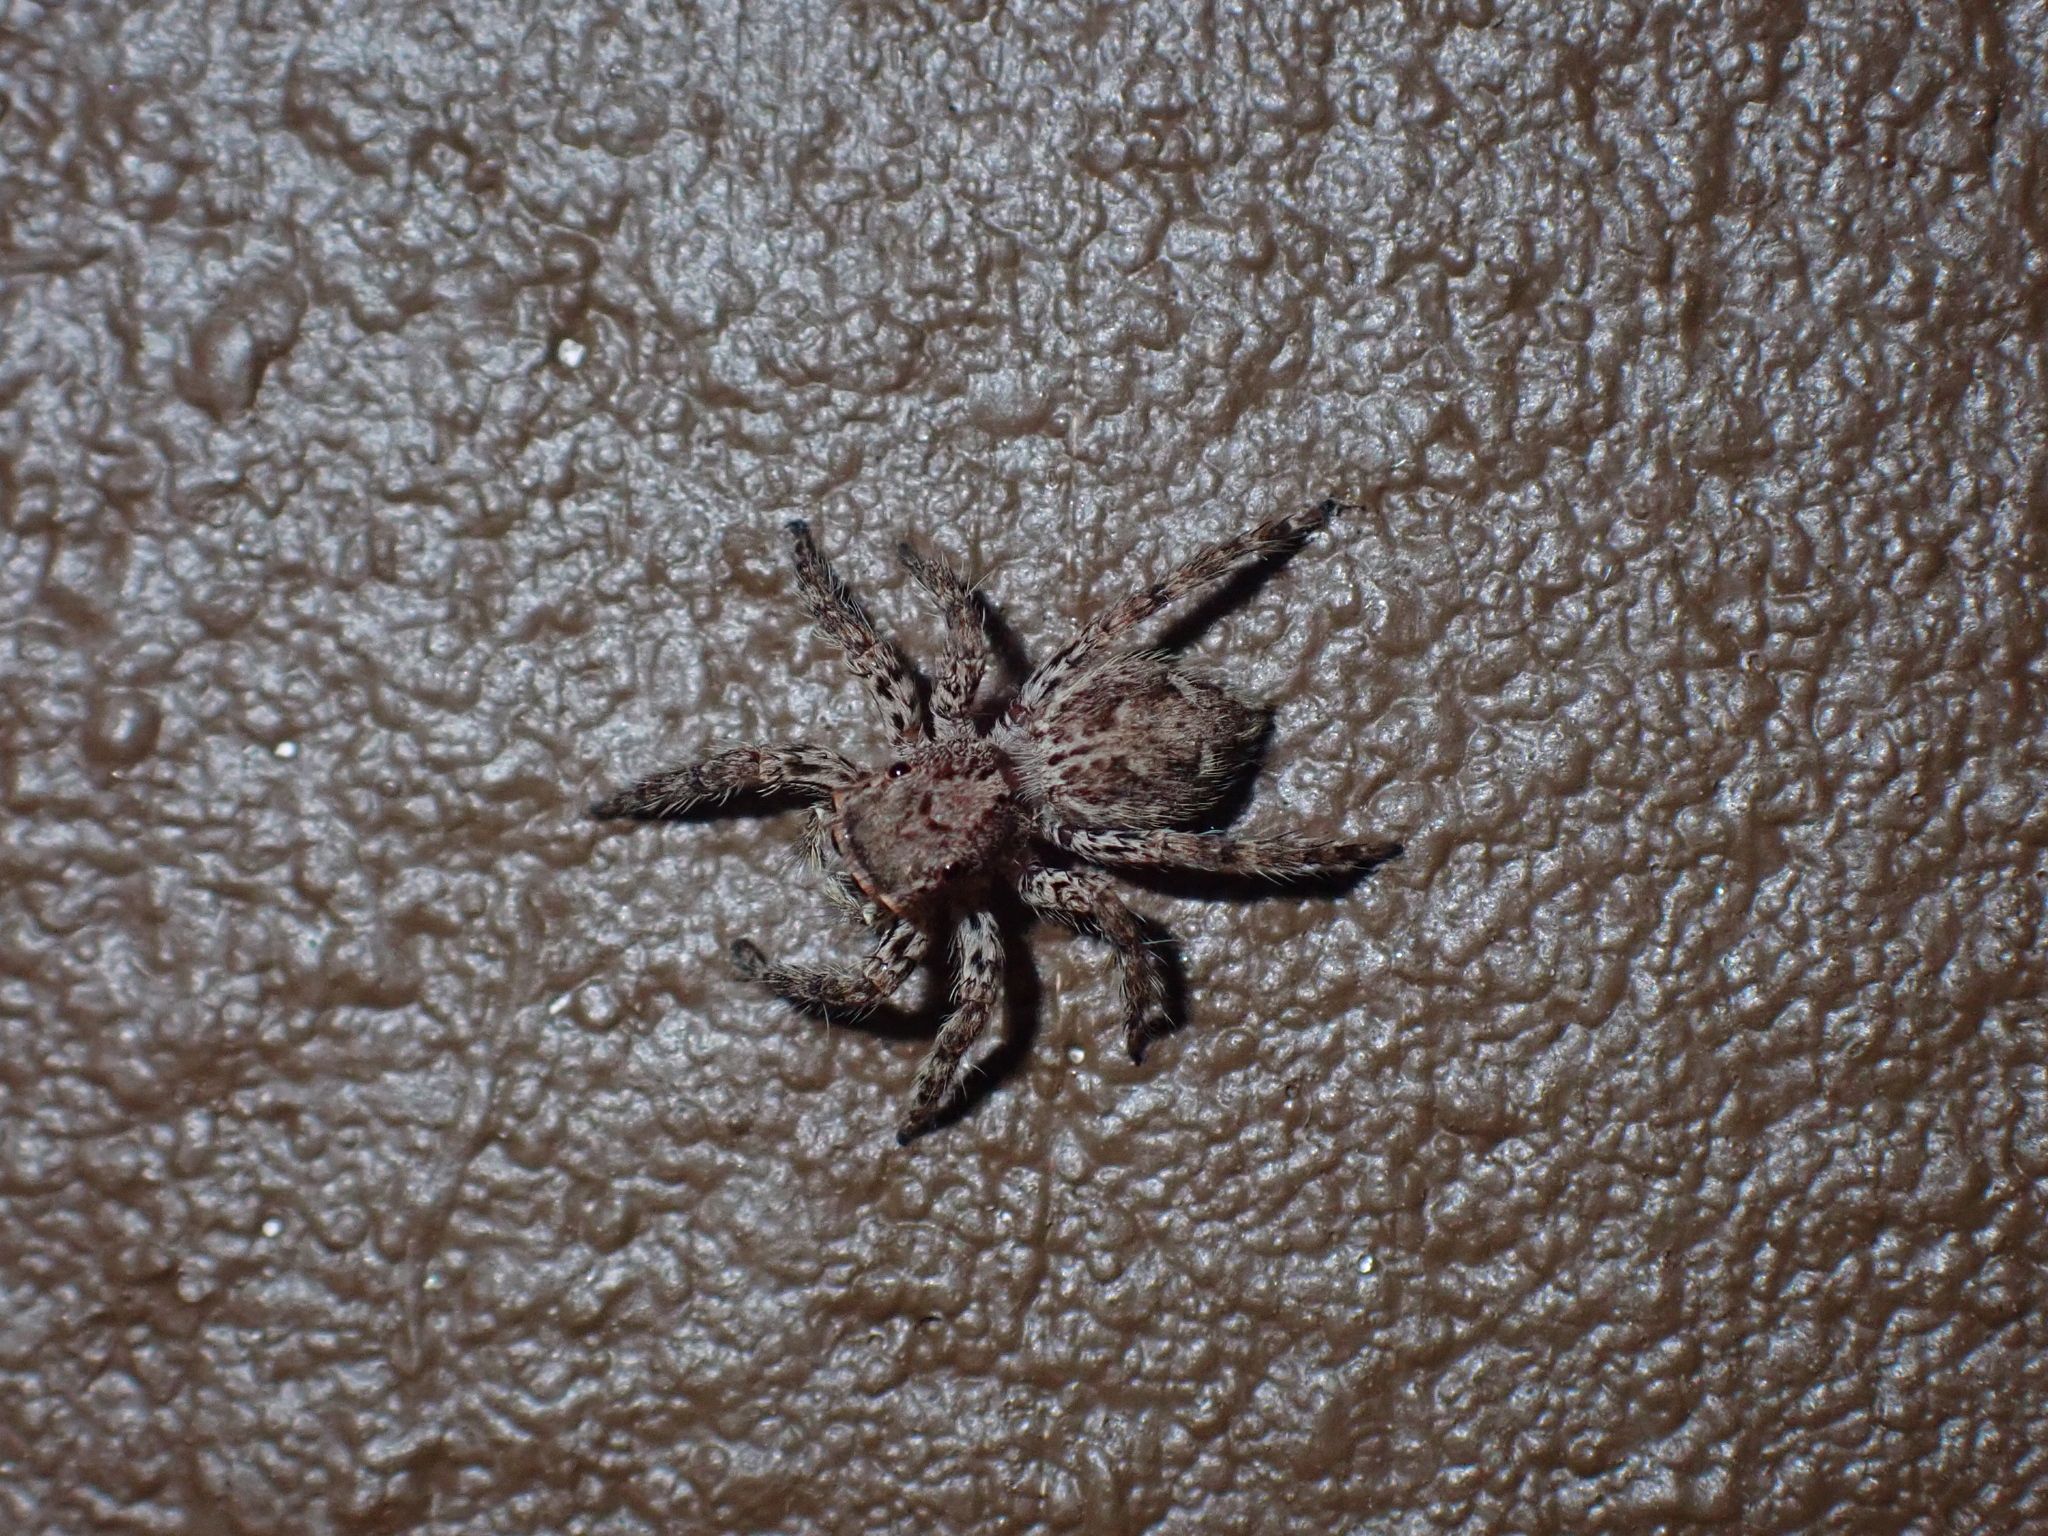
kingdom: Animalia
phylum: Arthropoda
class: Arachnida
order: Araneae
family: Salticidae
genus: Plexippus
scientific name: Plexippus petersi
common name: Jumping spider
